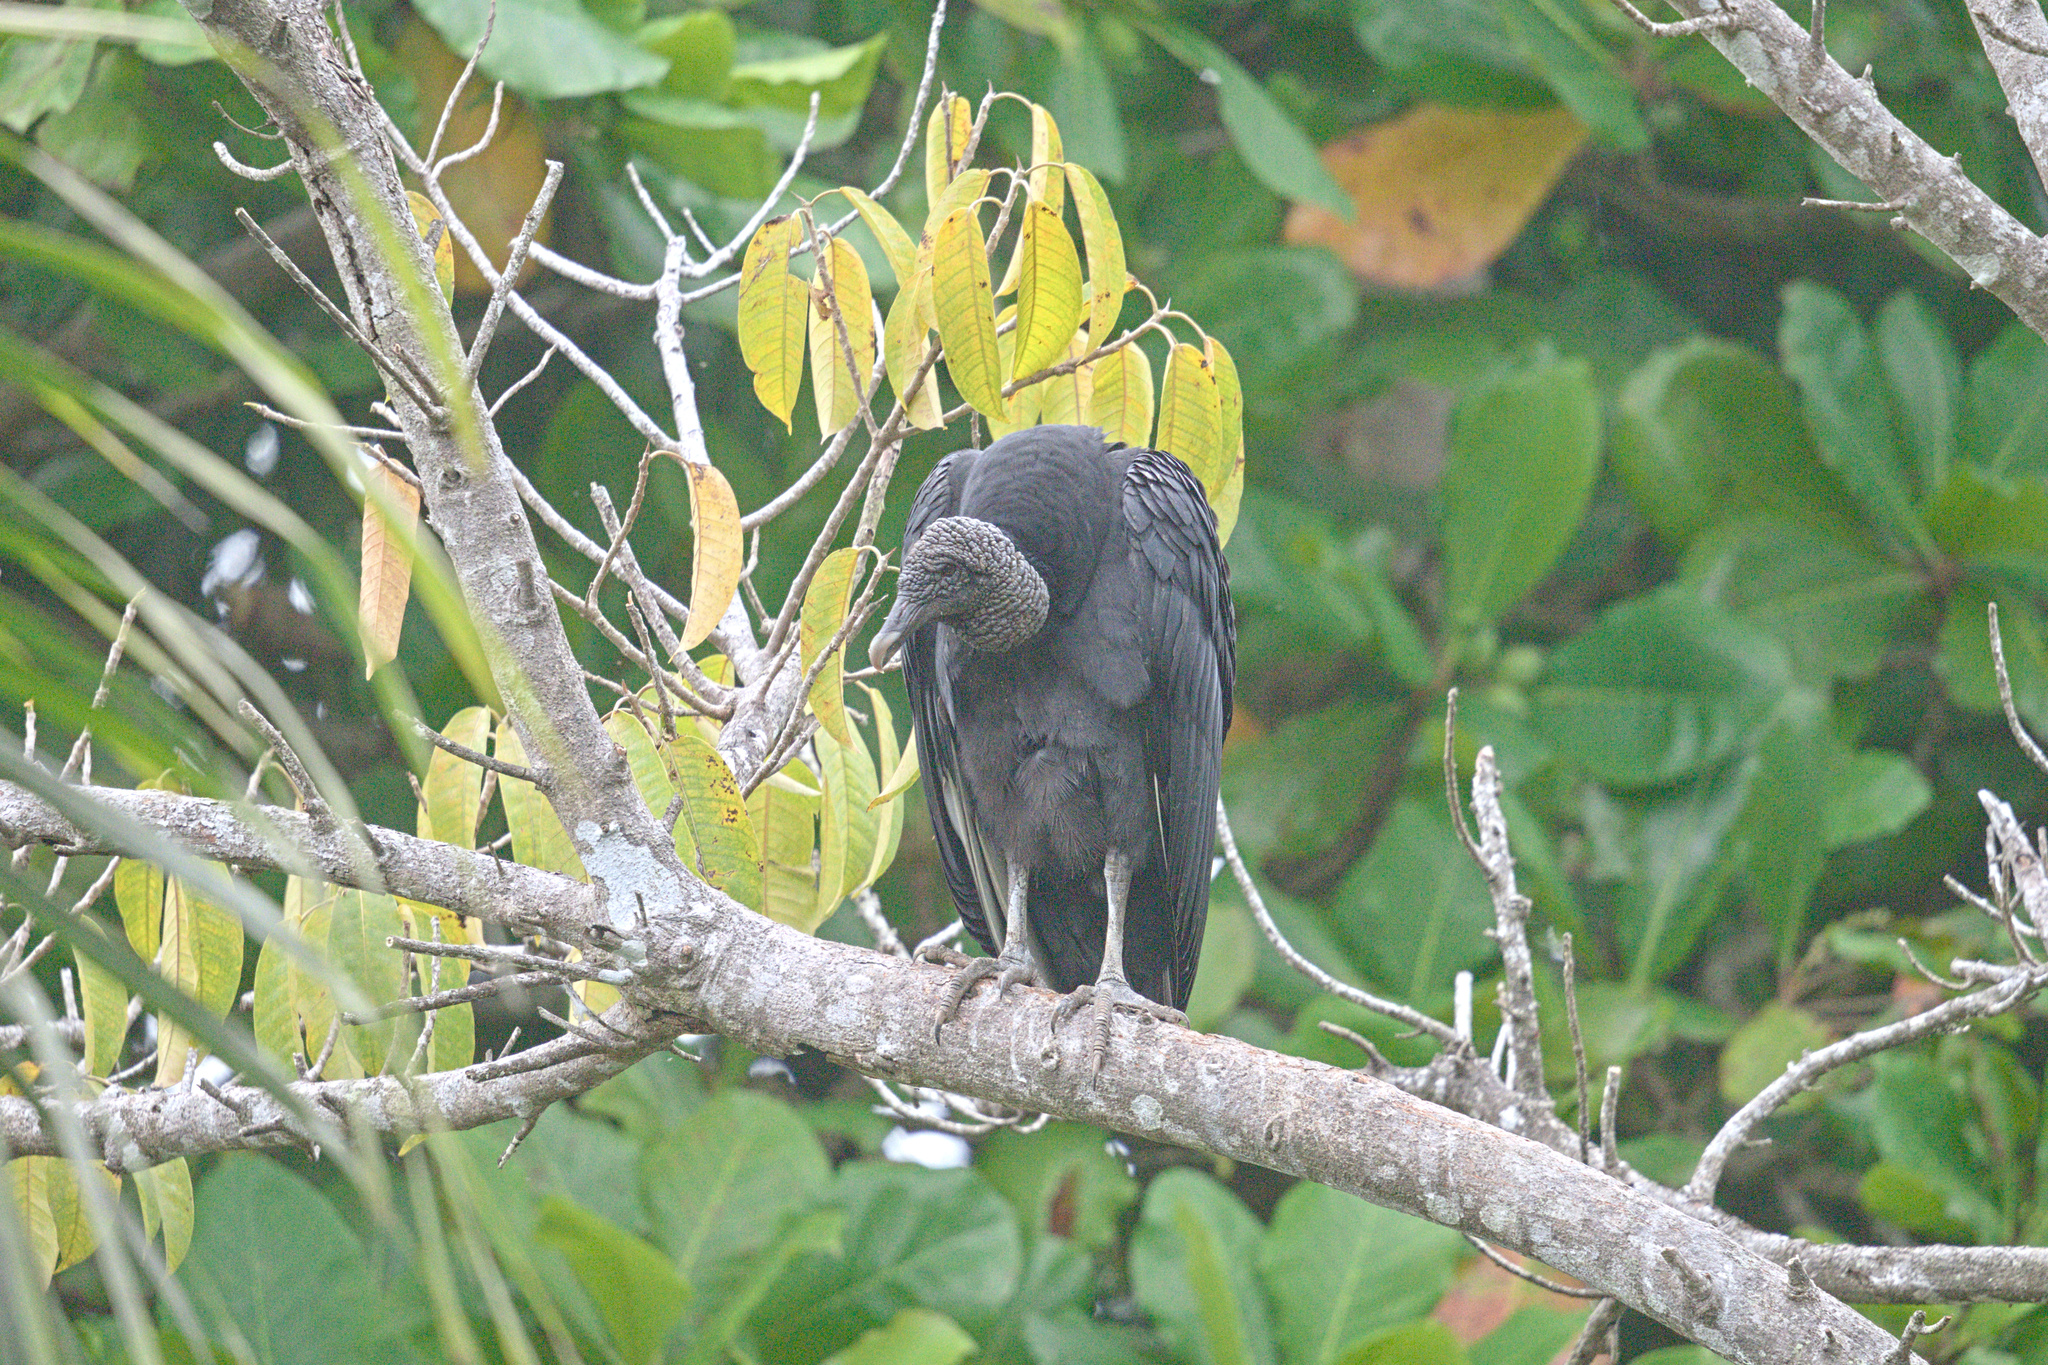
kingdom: Animalia
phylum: Chordata
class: Aves
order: Accipitriformes
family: Cathartidae
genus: Coragyps
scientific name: Coragyps atratus
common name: Black vulture
